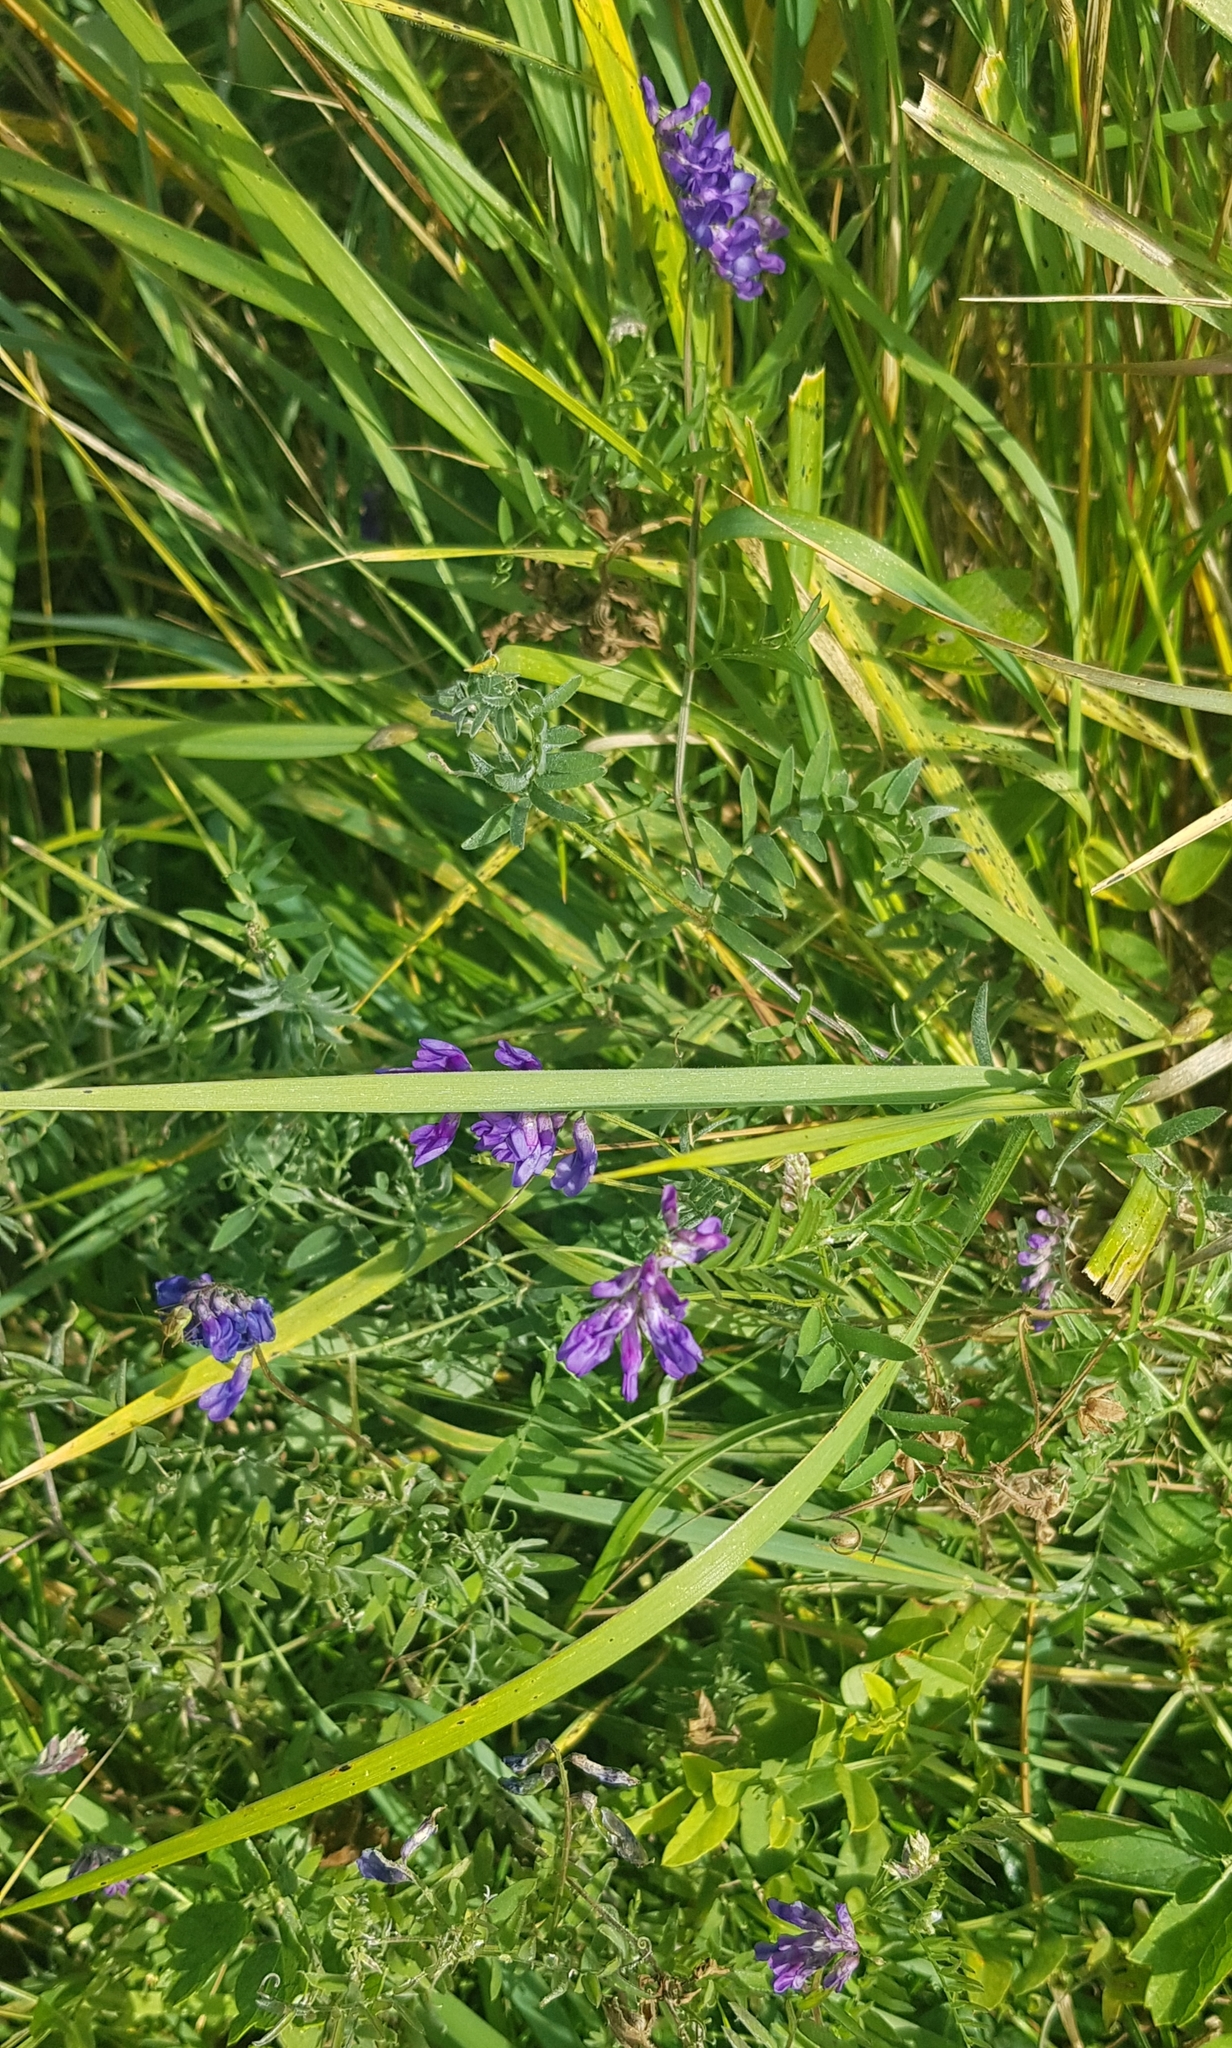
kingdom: Plantae
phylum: Tracheophyta
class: Magnoliopsida
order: Fabales
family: Fabaceae
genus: Vicia
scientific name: Vicia cracca
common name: Bird vetch
